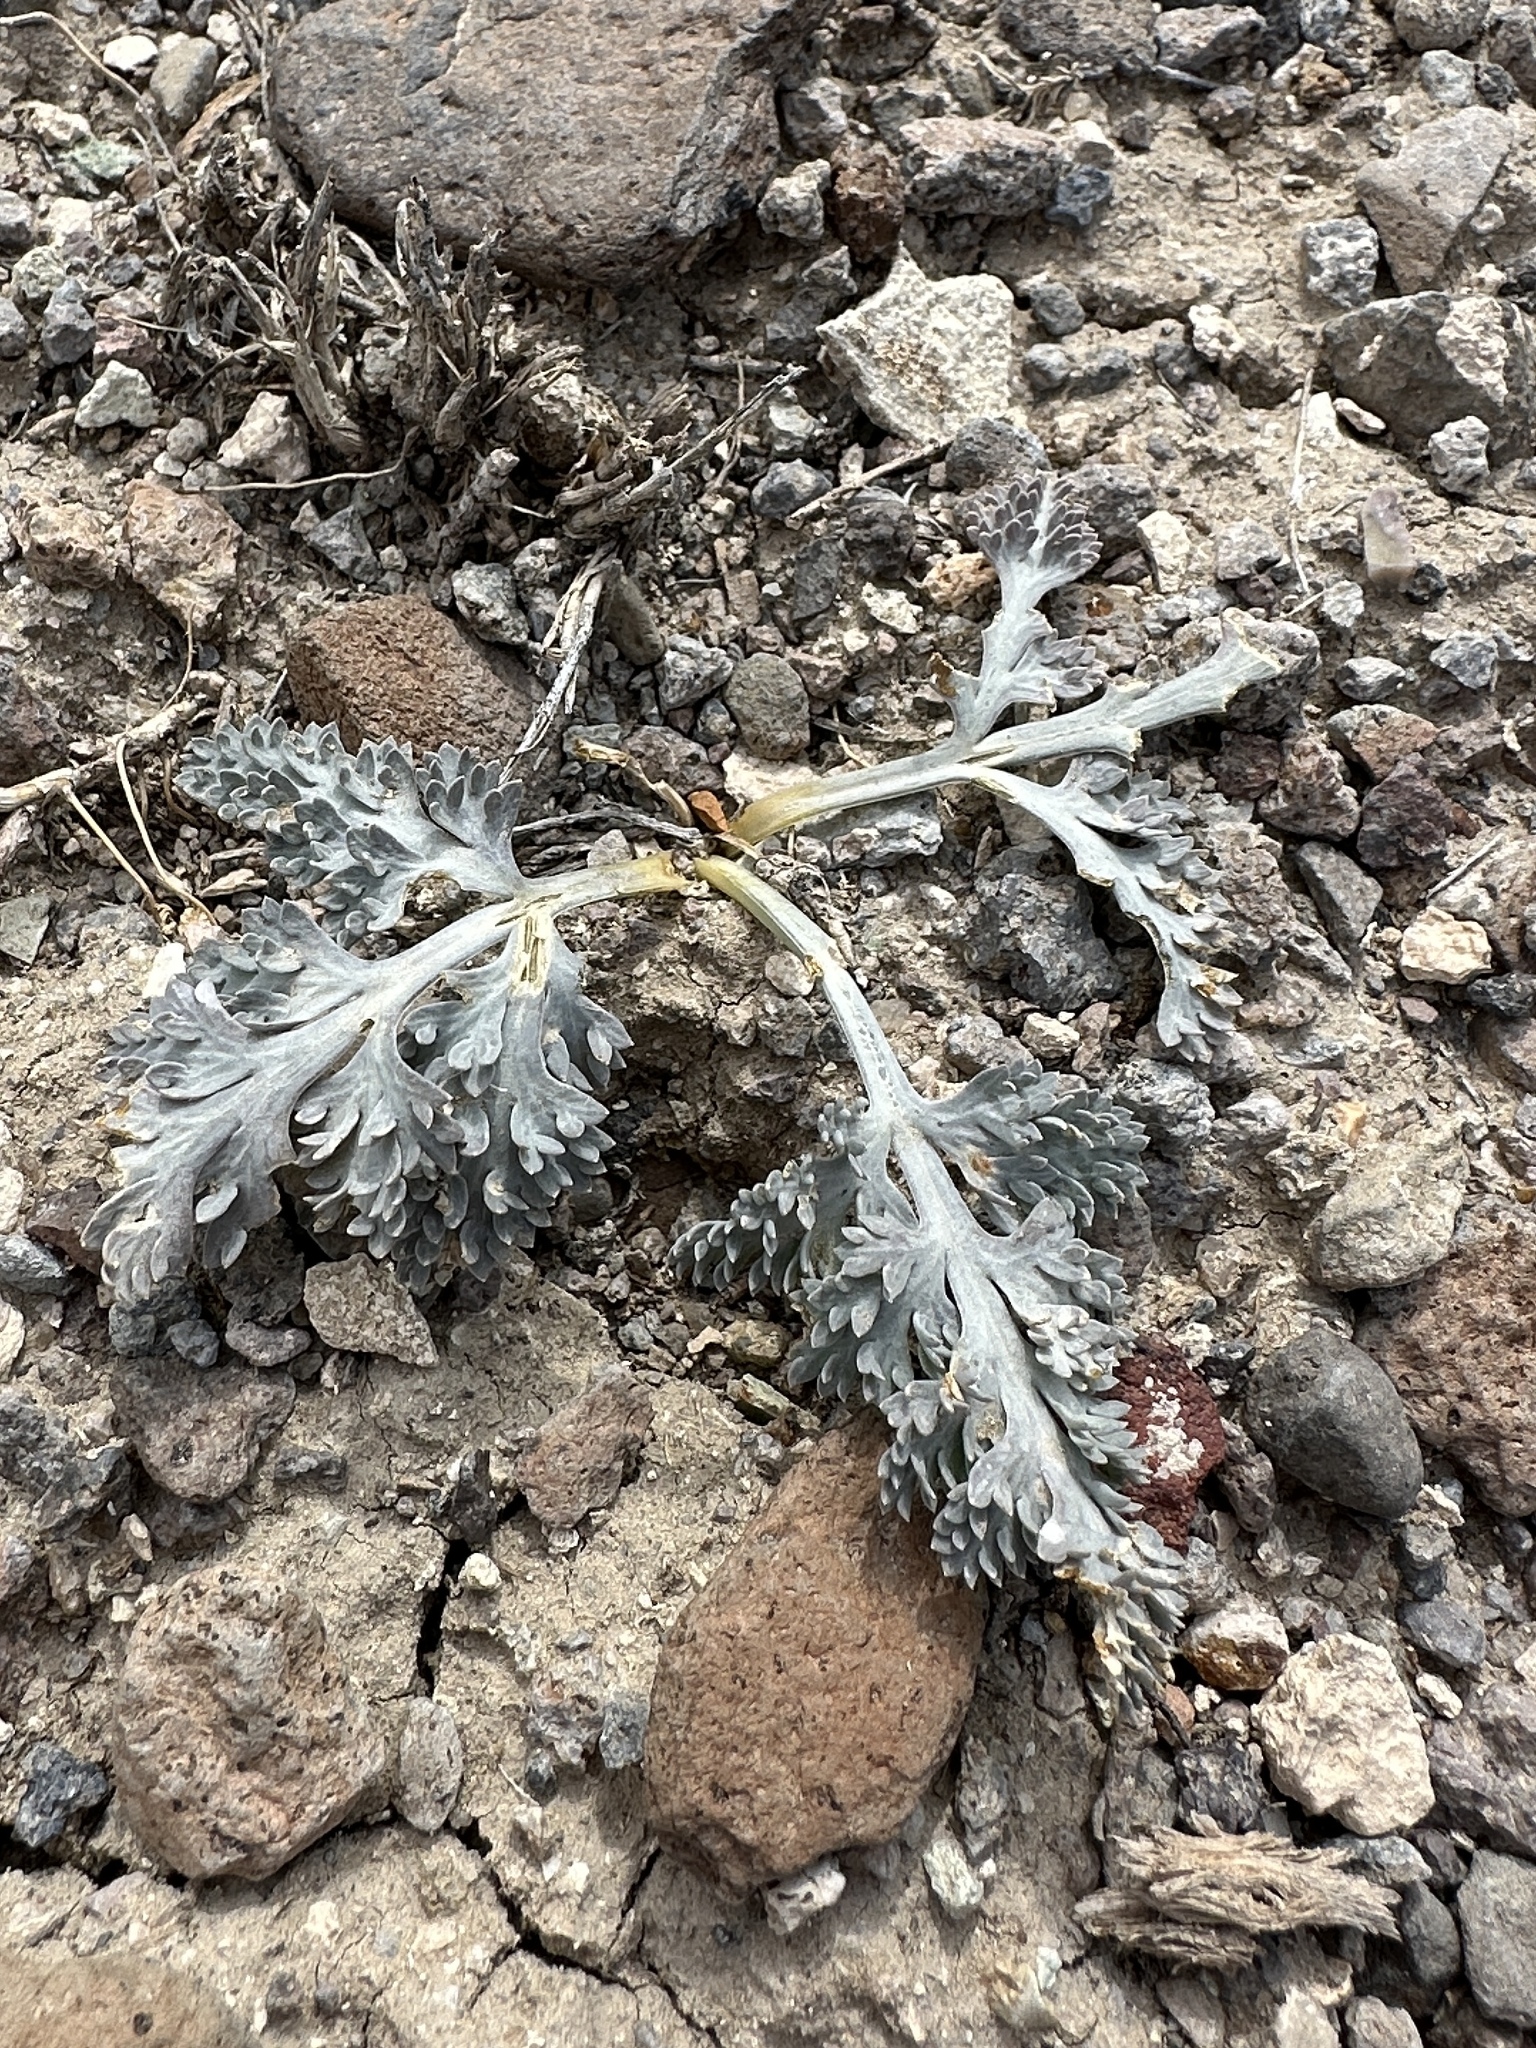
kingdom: Plantae
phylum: Tracheophyta
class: Magnoliopsida
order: Apiales
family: Apiaceae
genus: Vesper
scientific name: Vesper purpurascens
